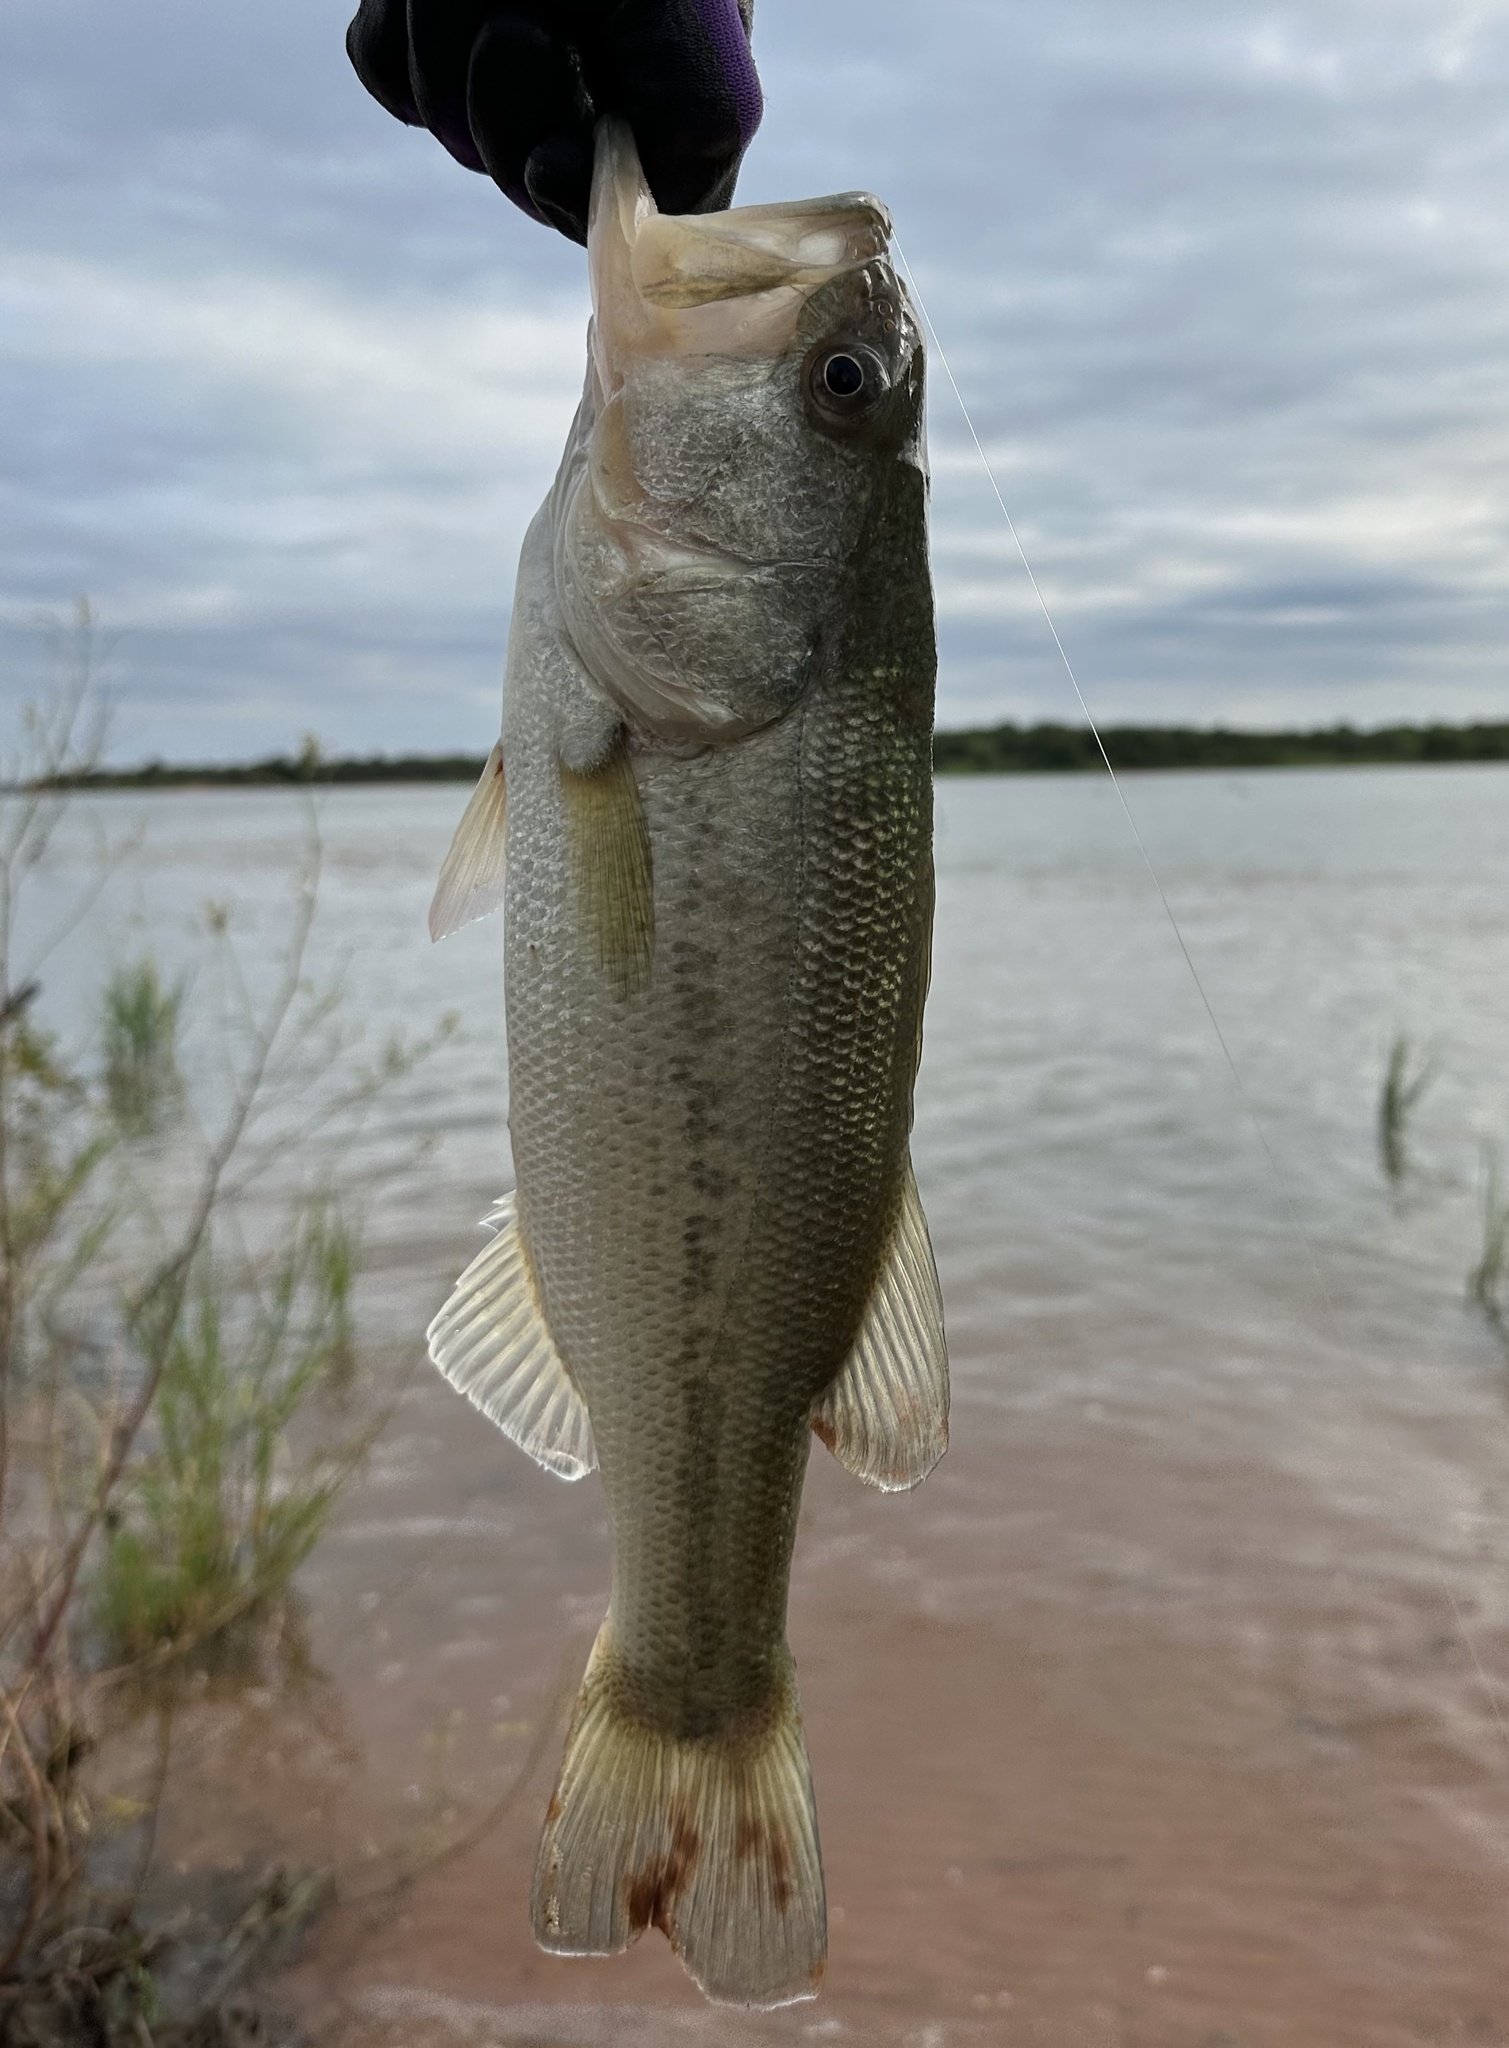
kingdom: Animalia
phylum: Chordata
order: Perciformes
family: Centrarchidae
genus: Micropterus
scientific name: Micropterus
